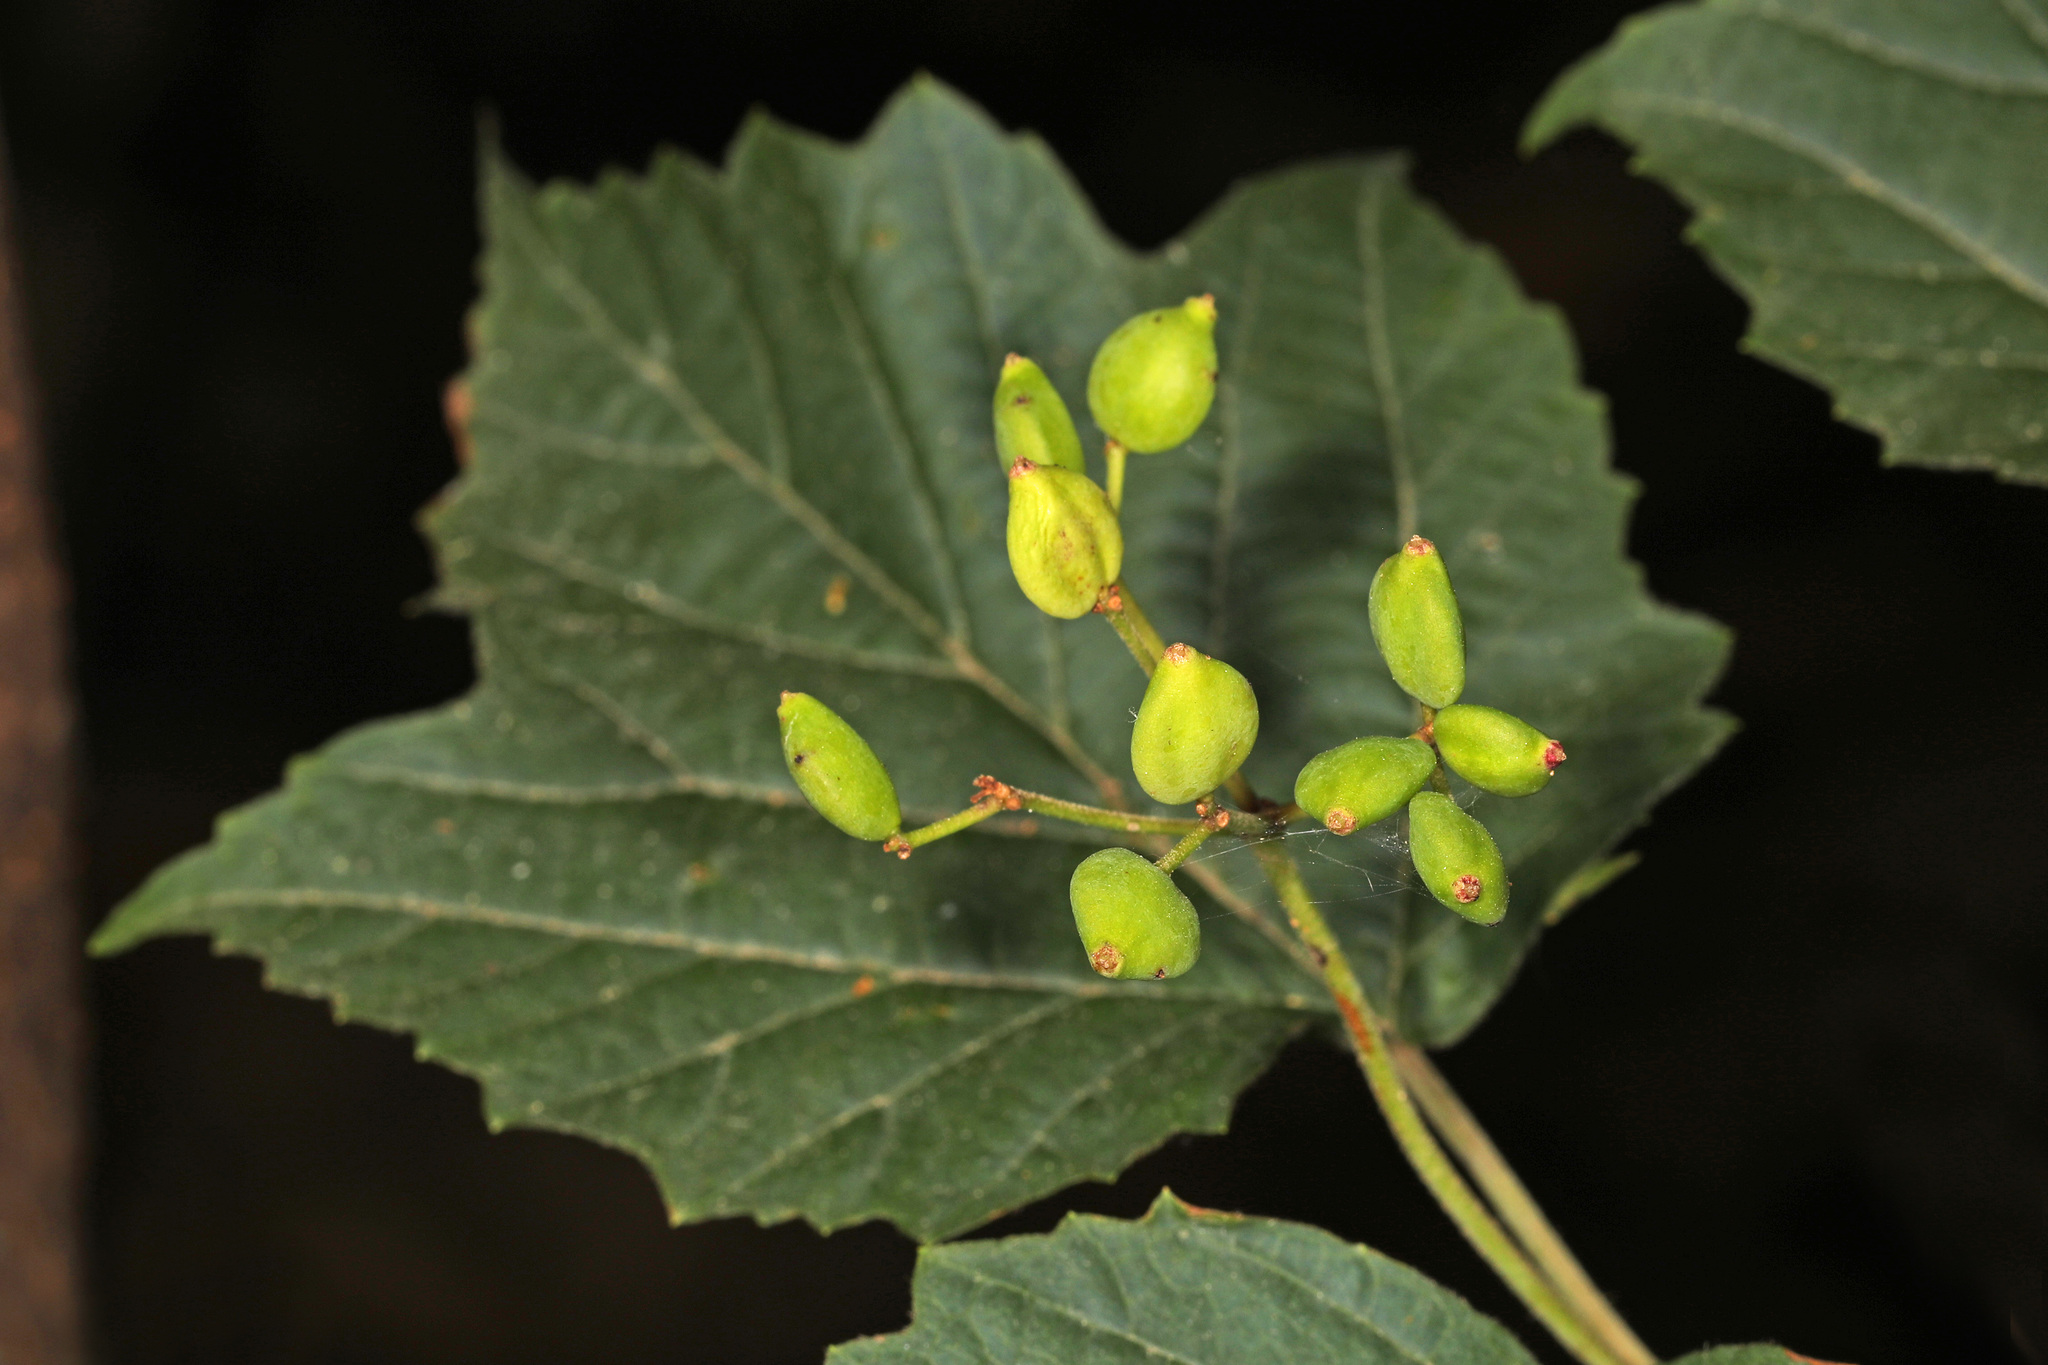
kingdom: Plantae
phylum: Tracheophyta
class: Magnoliopsida
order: Dipsacales
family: Viburnaceae
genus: Viburnum
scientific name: Viburnum acerifolium
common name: Dockmackie
